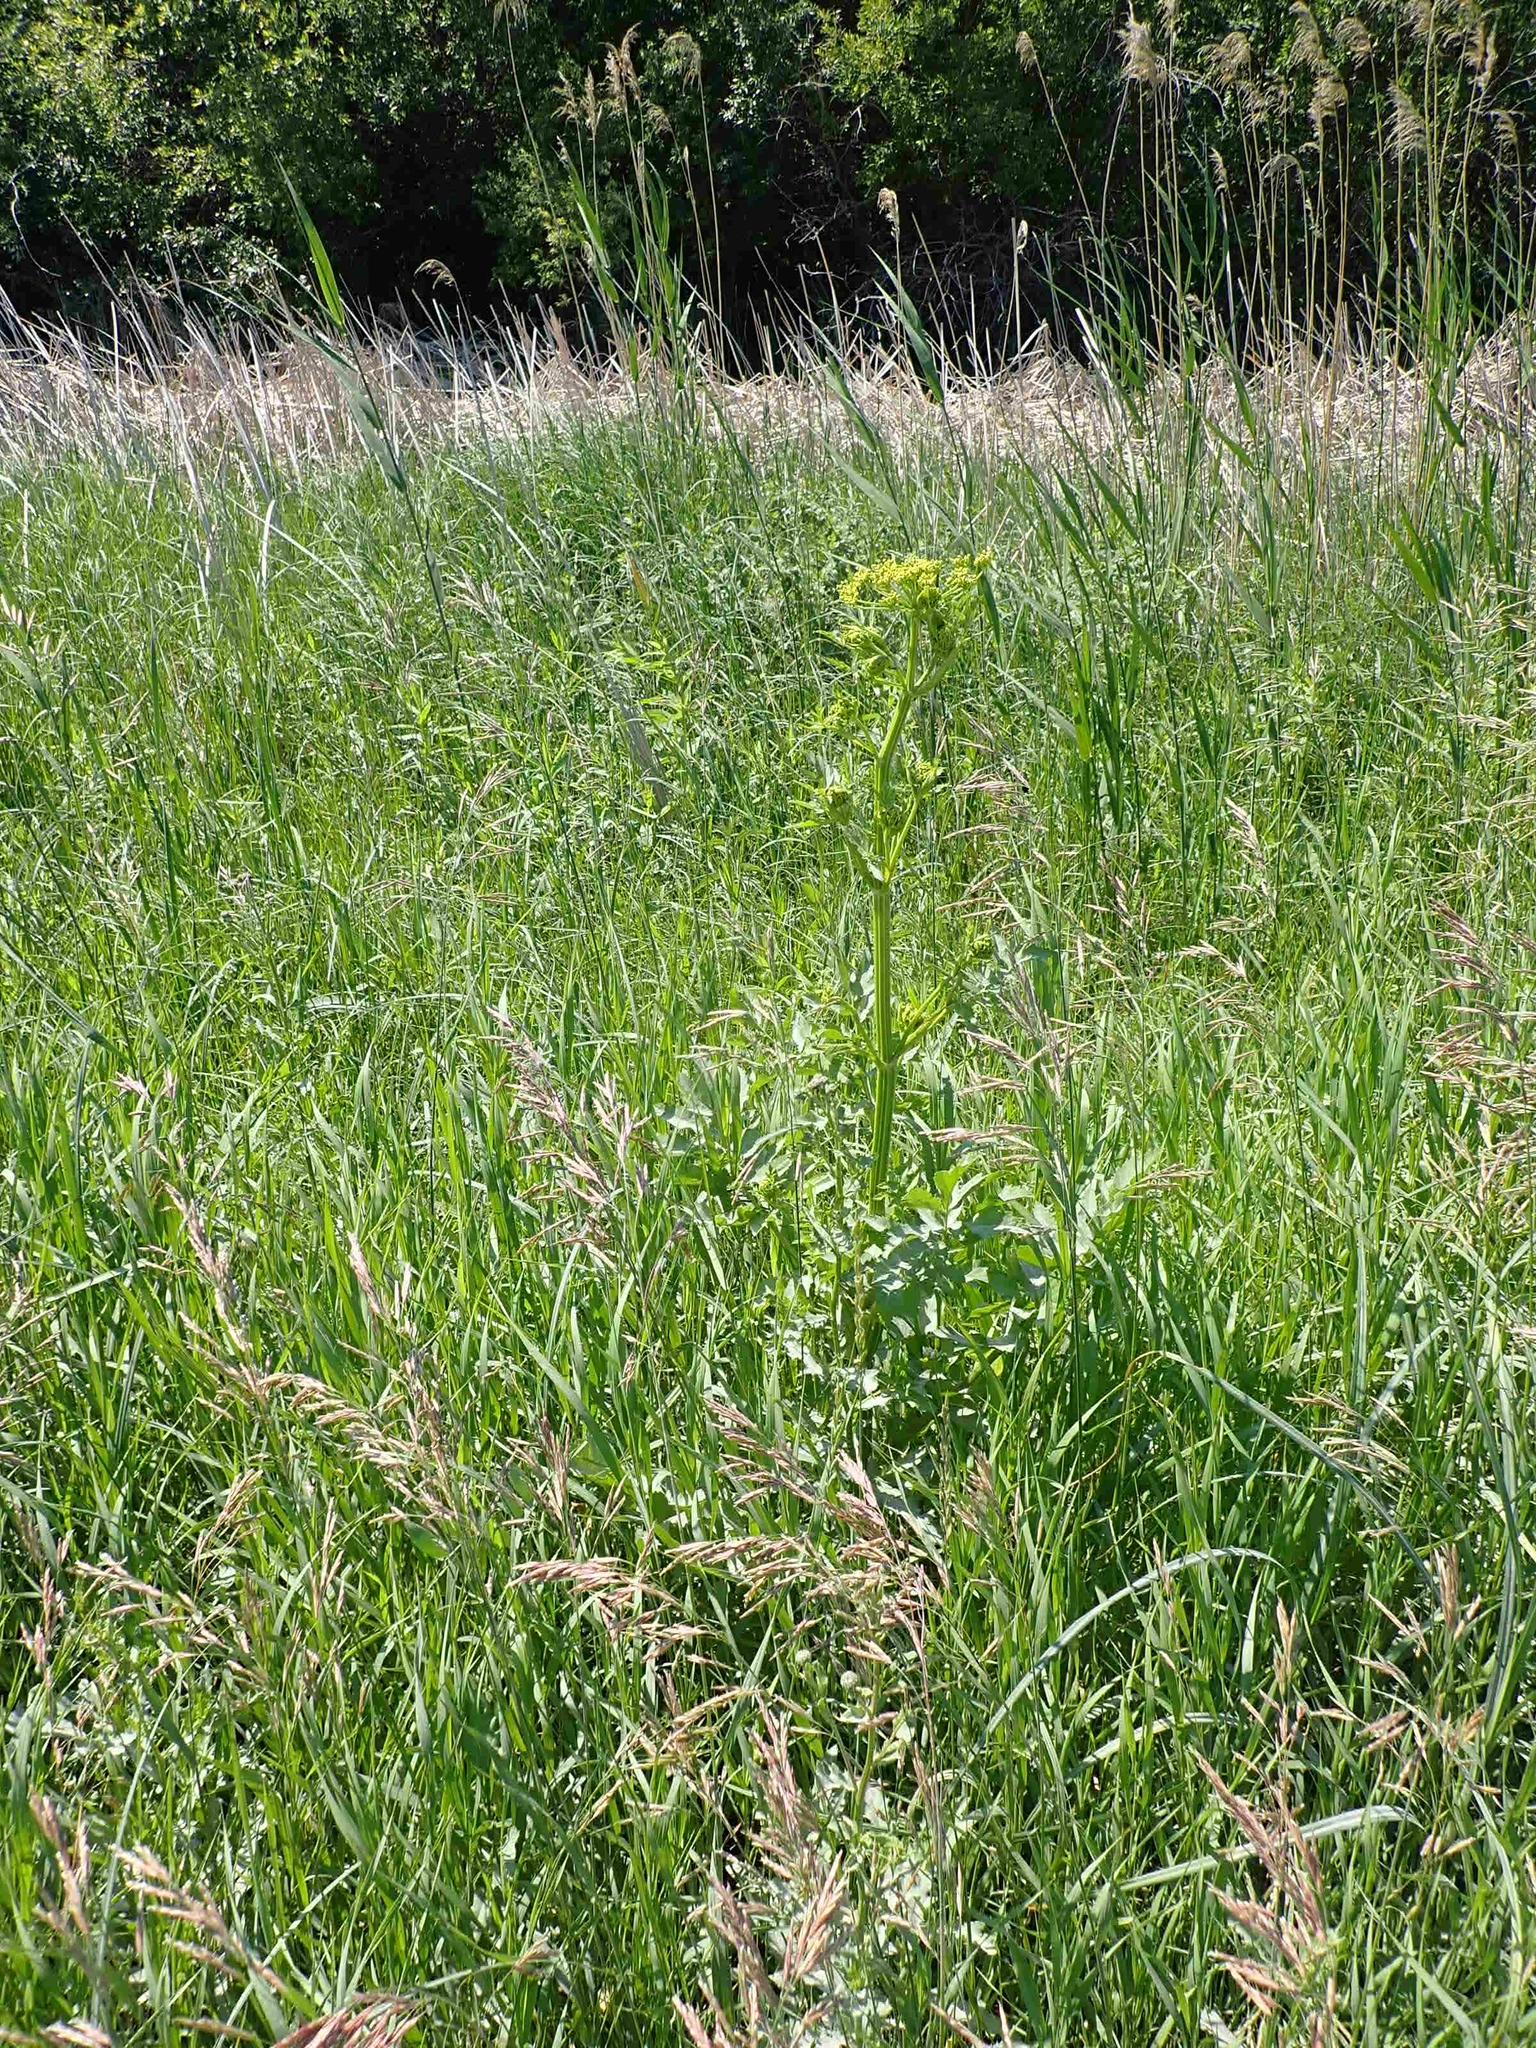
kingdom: Plantae
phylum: Tracheophyta
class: Magnoliopsida
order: Apiales
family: Apiaceae
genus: Pastinaca
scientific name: Pastinaca sativa
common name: Wild parsnip
